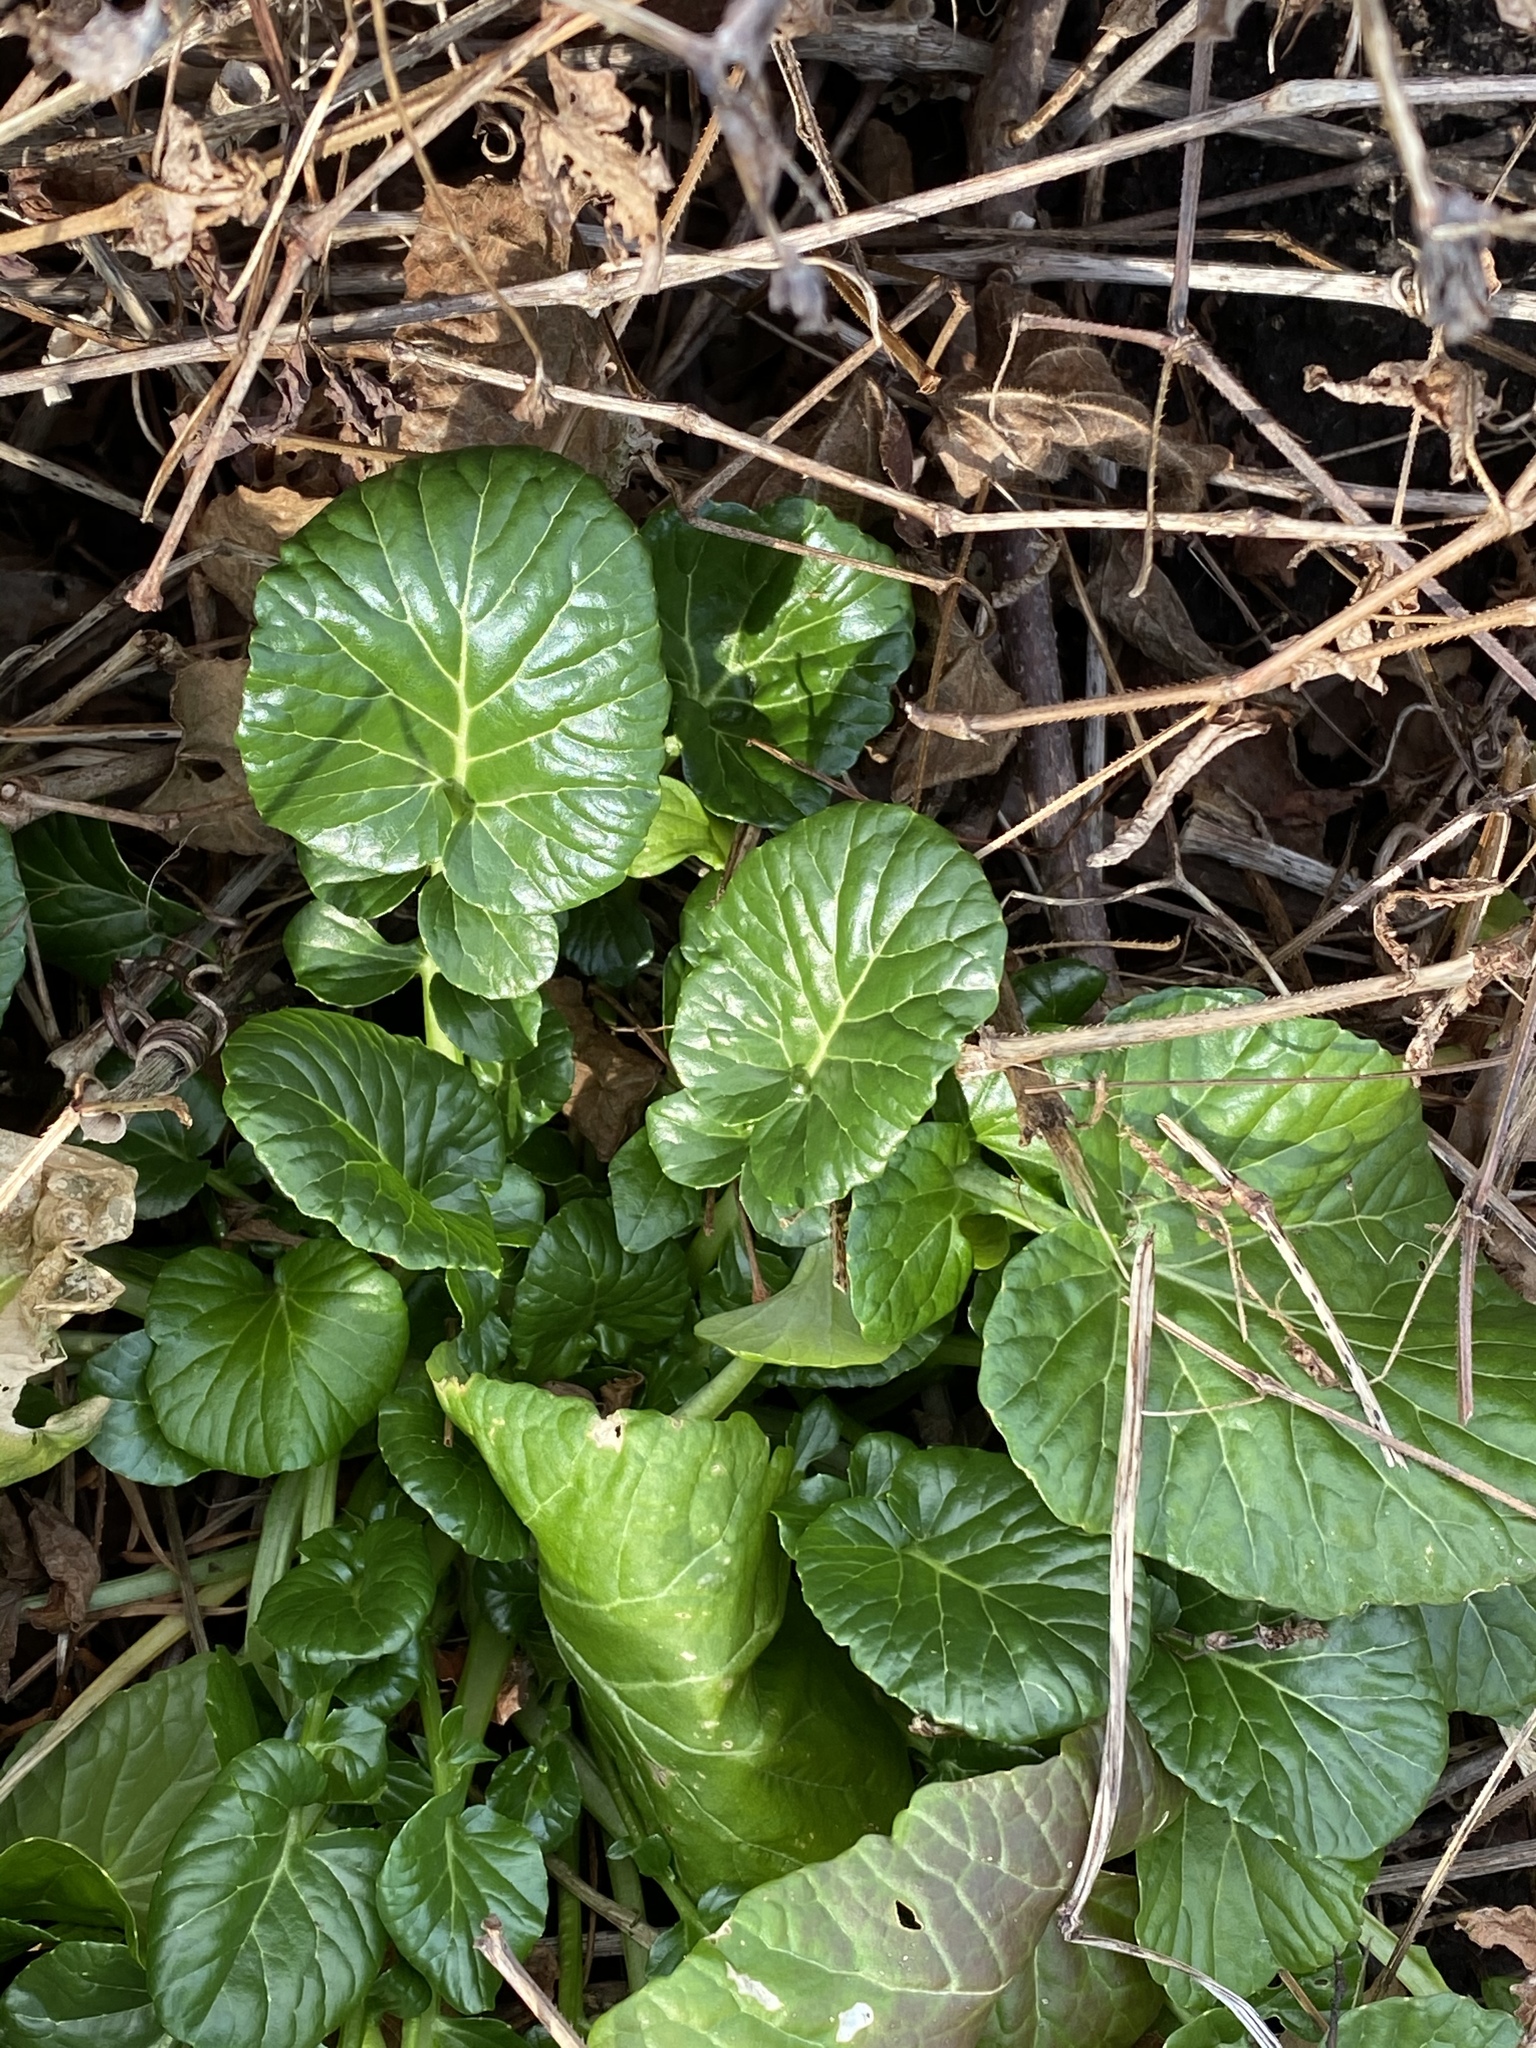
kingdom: Plantae
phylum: Tracheophyta
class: Magnoliopsida
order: Brassicales
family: Brassicaceae
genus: Barbarea
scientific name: Barbarea vulgaris
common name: Cressy-greens
